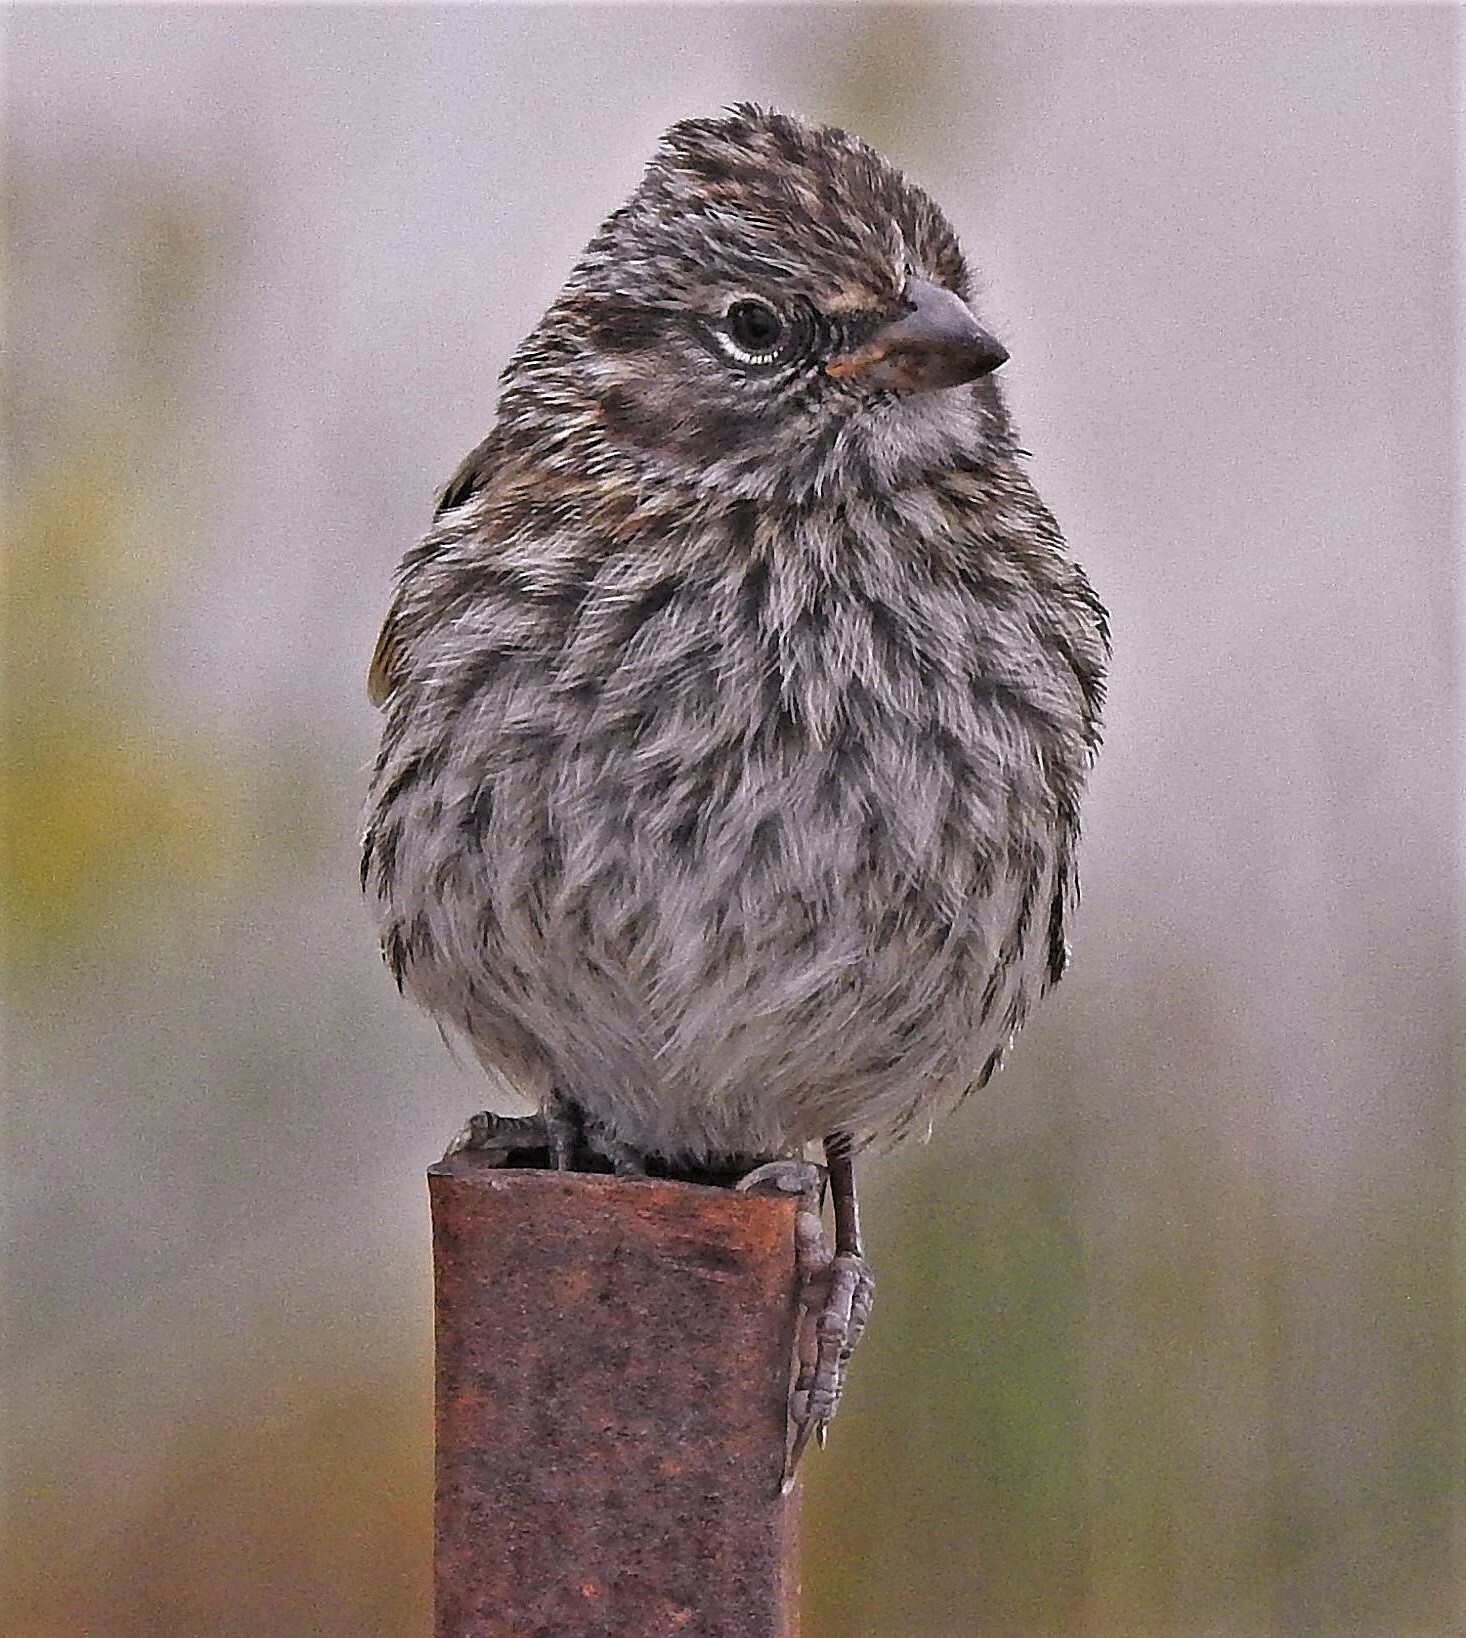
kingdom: Animalia
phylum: Chordata
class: Aves
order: Passeriformes
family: Passerellidae
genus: Zonotrichia
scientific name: Zonotrichia capensis
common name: Rufous-collared sparrow
